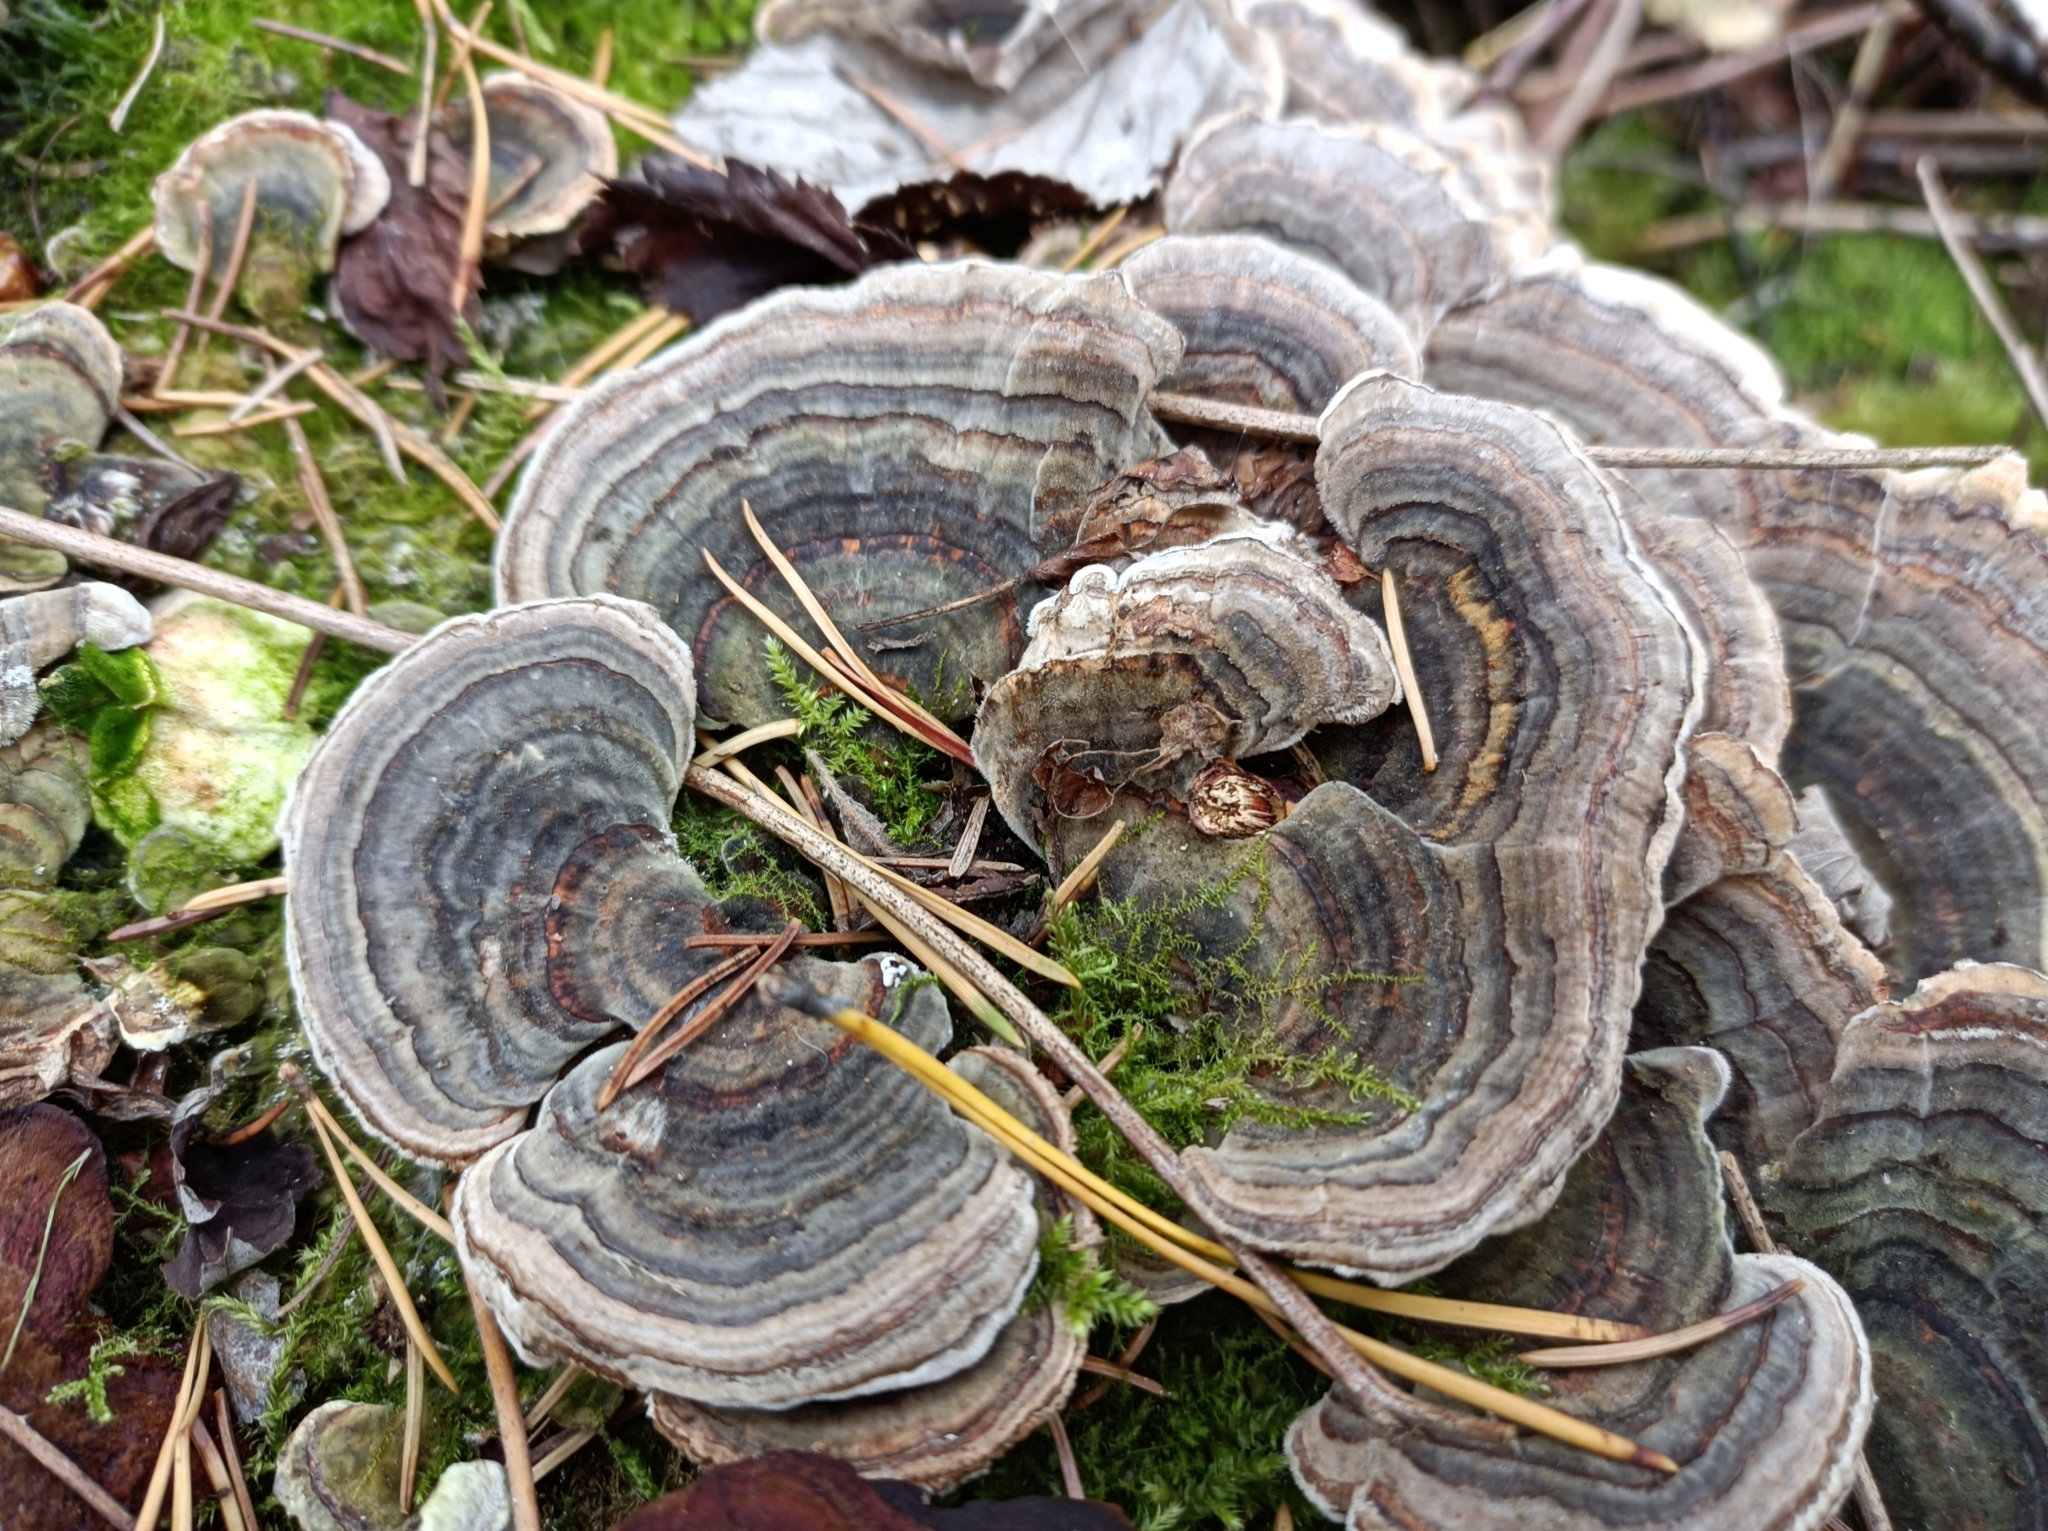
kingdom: Fungi
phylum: Basidiomycota
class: Agaricomycetes
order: Polyporales
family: Polyporaceae
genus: Trametes
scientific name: Trametes versicolor
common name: Turkeytail
